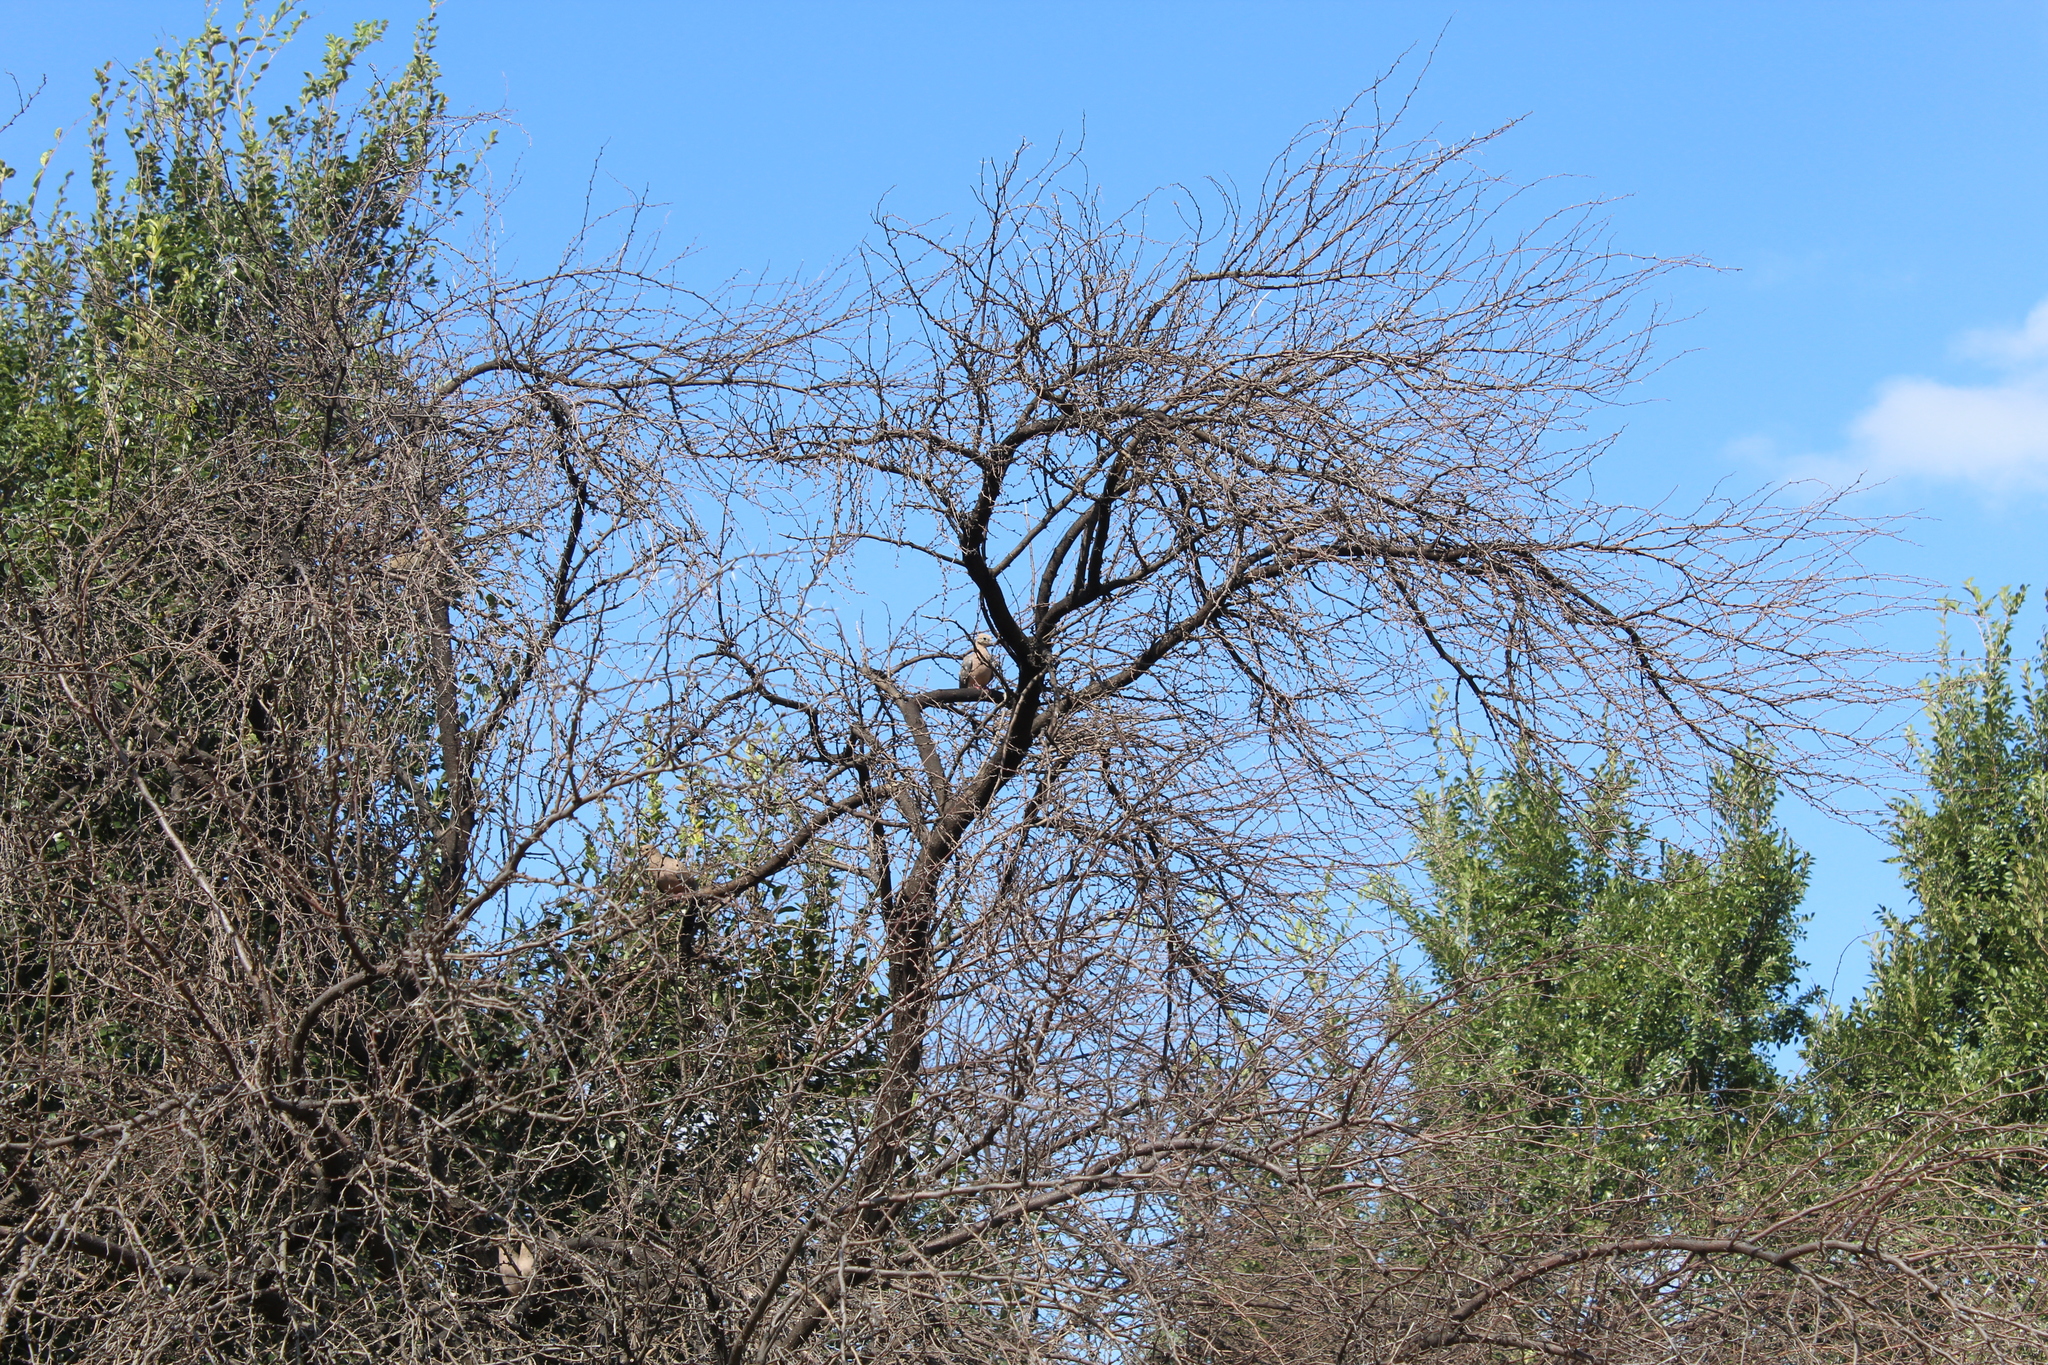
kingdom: Animalia
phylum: Chordata
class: Aves
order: Columbiformes
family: Columbidae
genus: Zenaida
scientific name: Zenaida macroura
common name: Mourning dove
